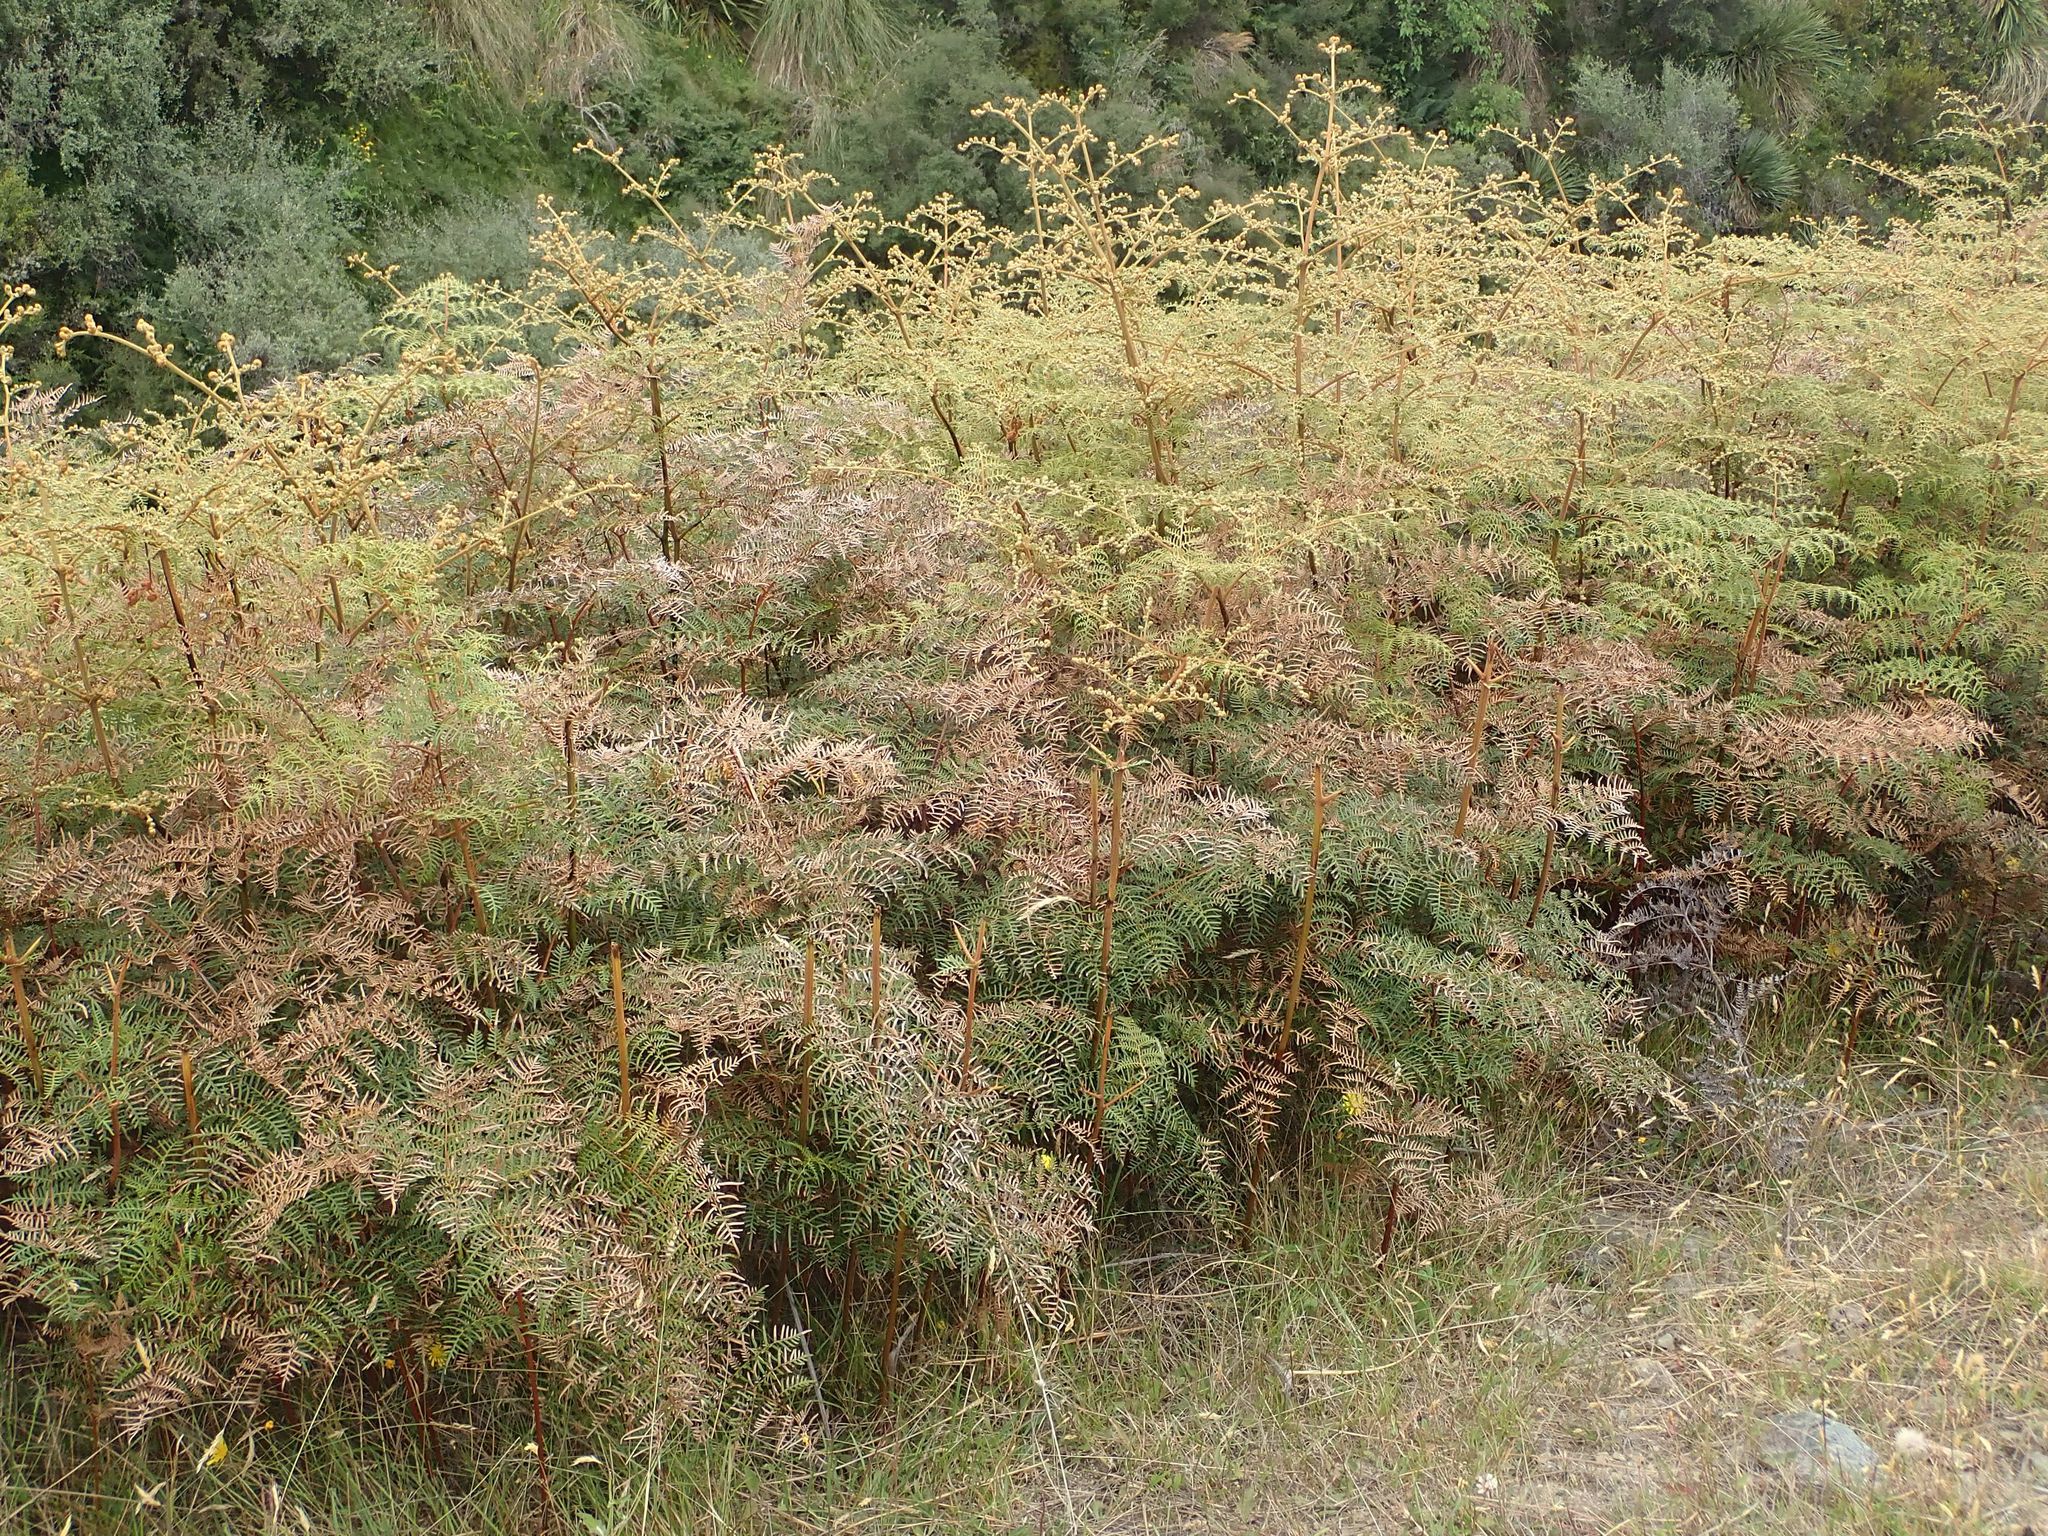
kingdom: Plantae
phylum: Tracheophyta
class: Polypodiopsida
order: Polypodiales
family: Dennstaedtiaceae
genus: Pteridium
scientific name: Pteridium esculentum
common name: Bracken fern
